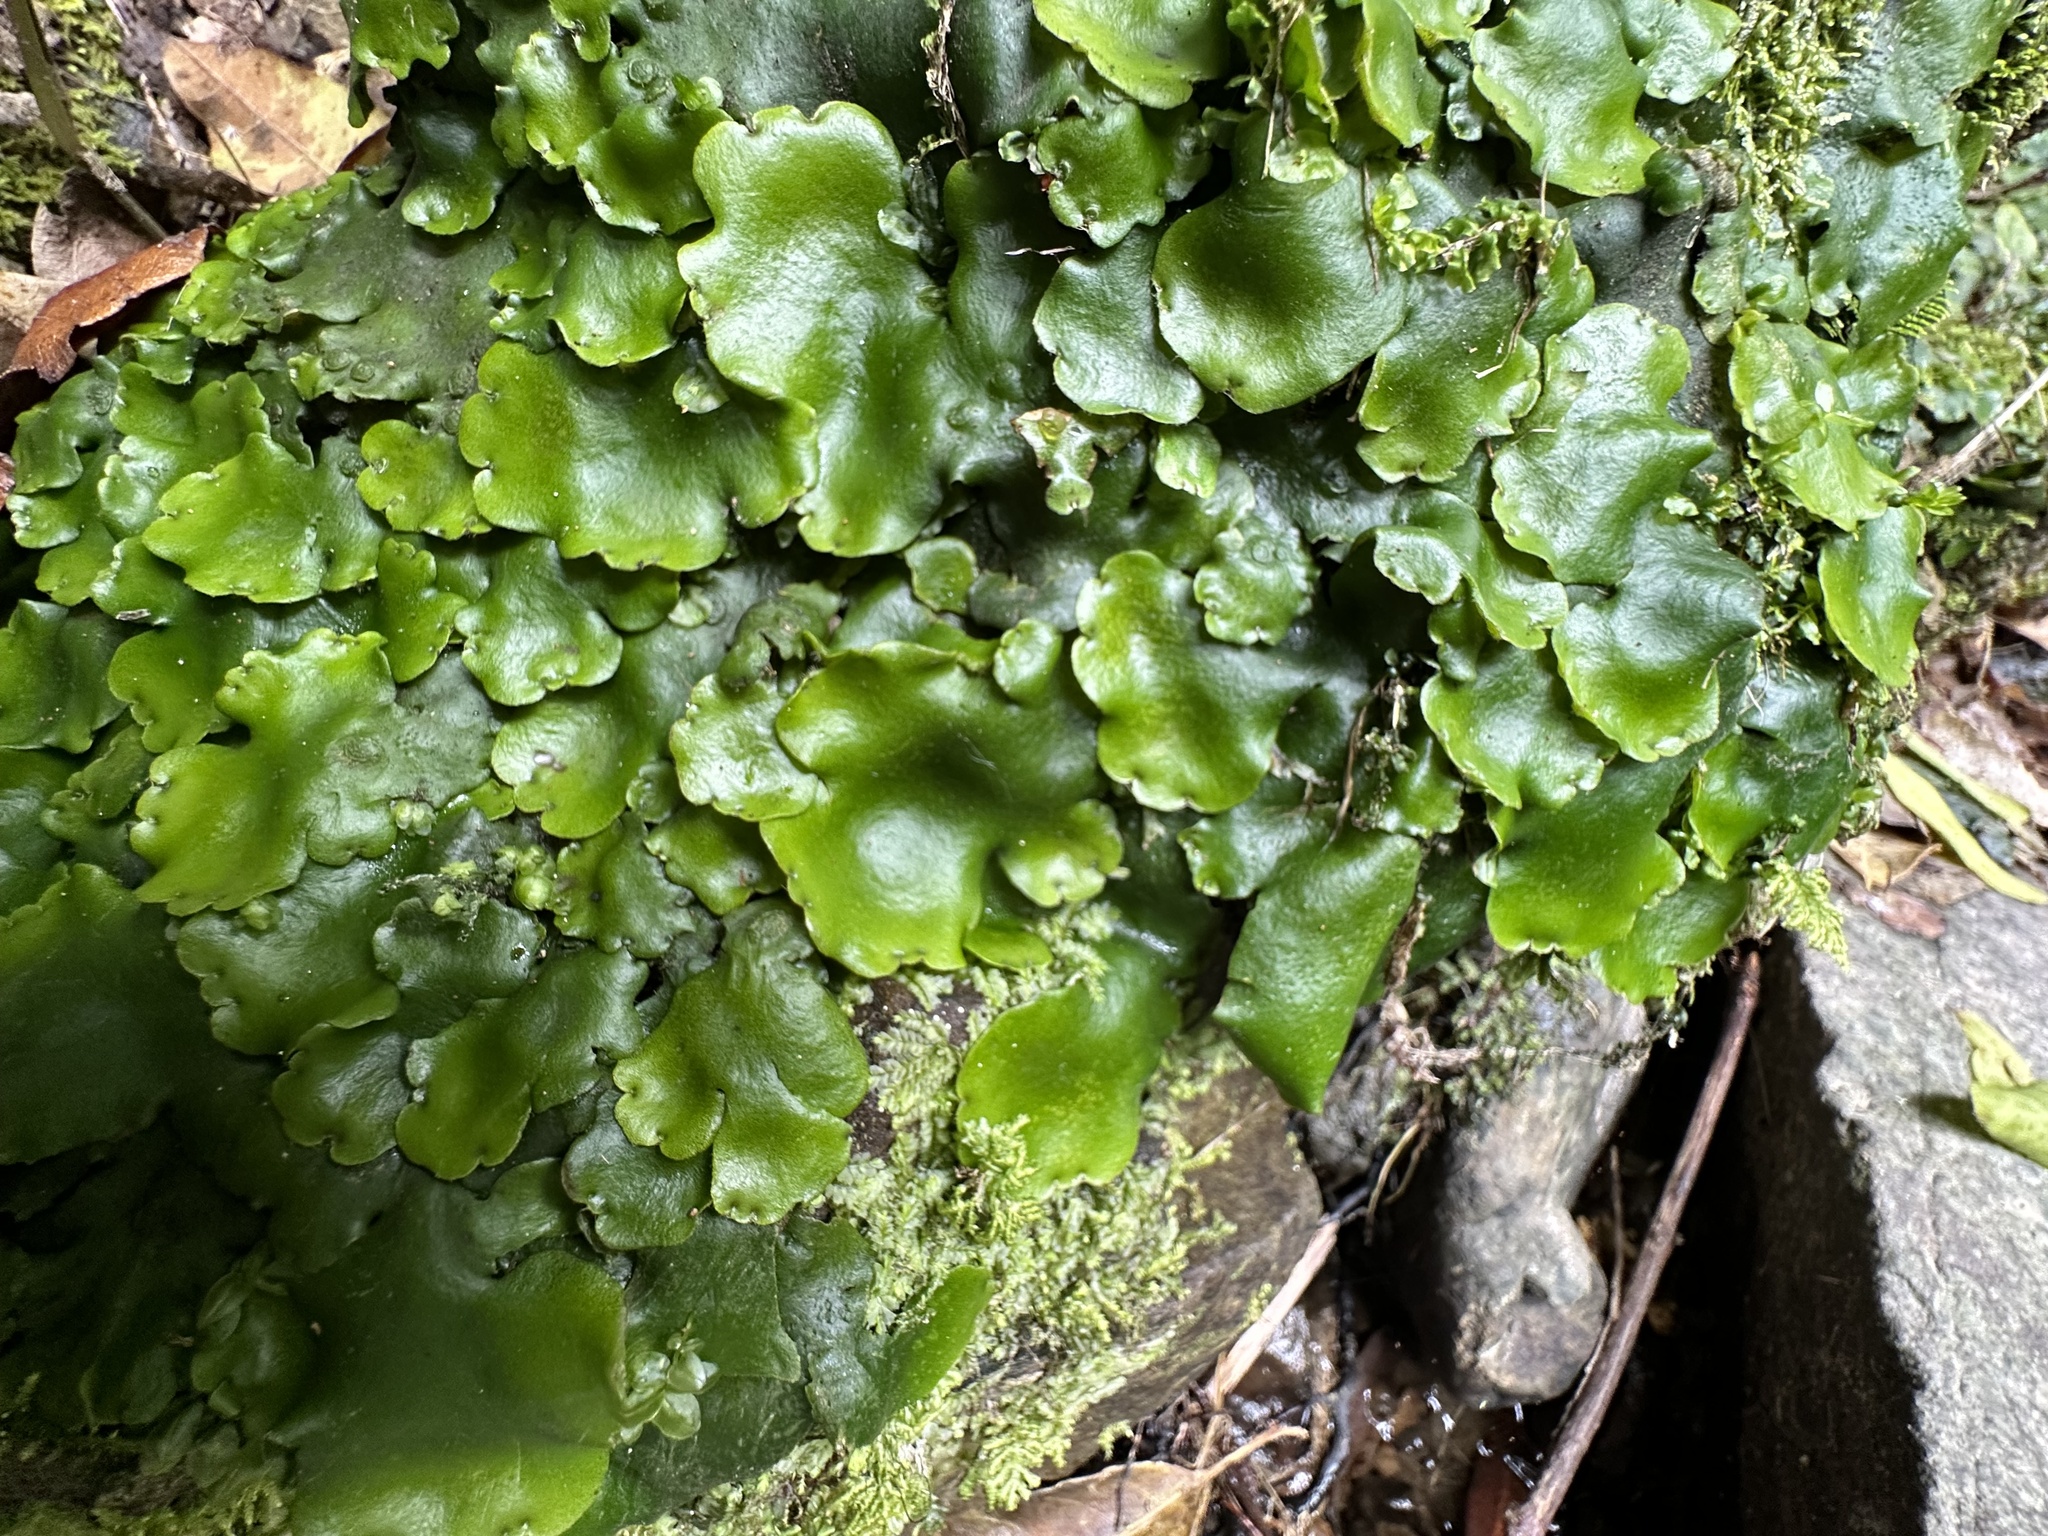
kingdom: Plantae
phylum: Marchantiophyta
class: Marchantiopsida
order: Marchantiales
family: Monocleaceae
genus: Monoclea
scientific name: Monoclea forsteri
